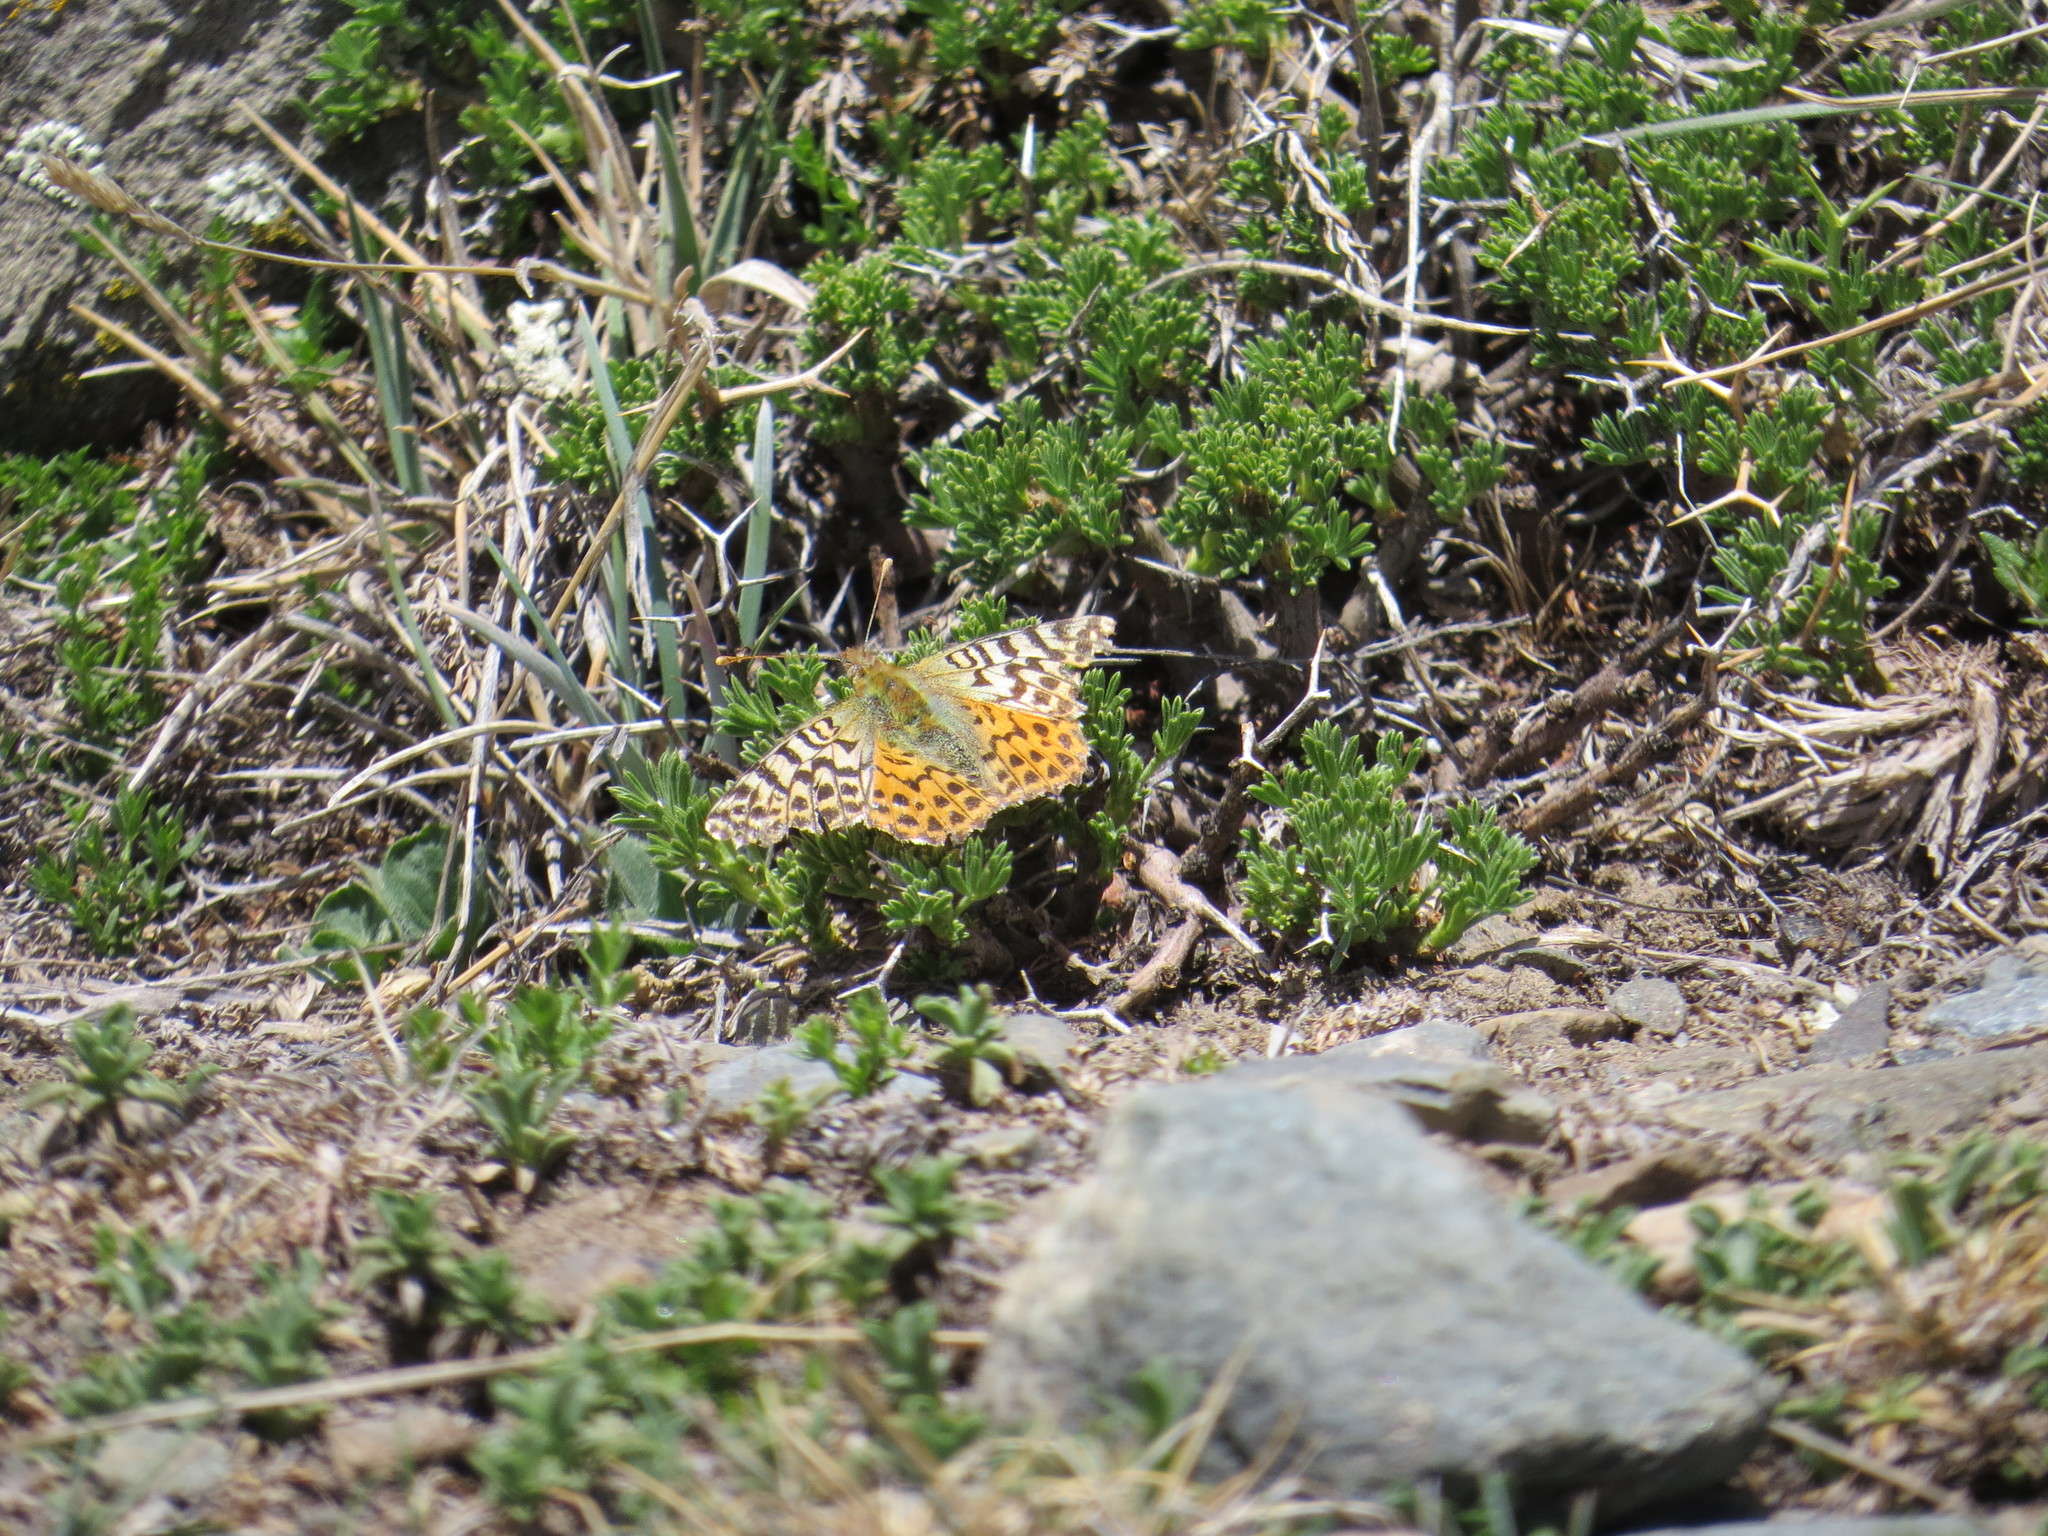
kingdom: Animalia
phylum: Arthropoda
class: Insecta
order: Lepidoptera
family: Nymphalidae
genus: Issoria
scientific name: Issoria Yramea lathonoides
